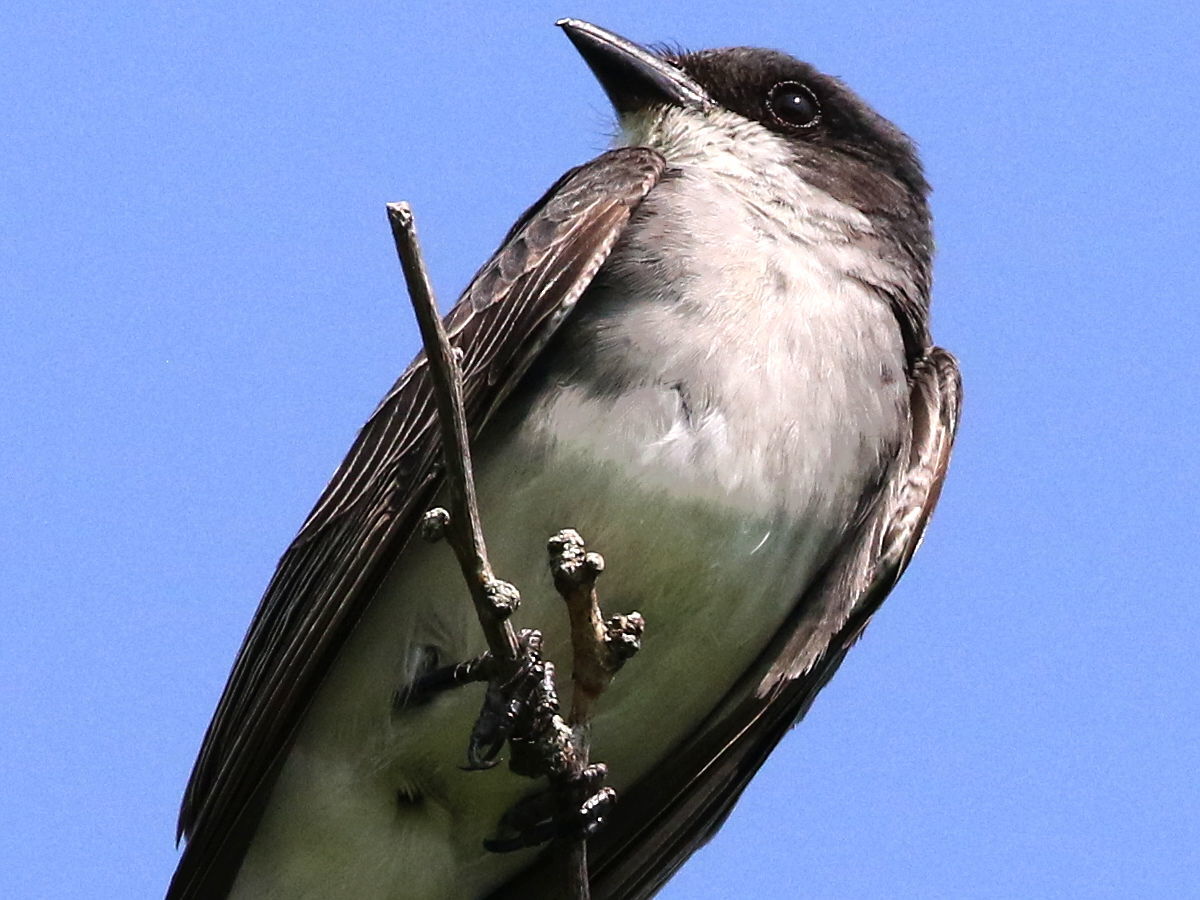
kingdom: Animalia
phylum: Chordata
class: Aves
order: Passeriformes
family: Tyrannidae
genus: Tyrannus
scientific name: Tyrannus tyrannus
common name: Eastern kingbird
